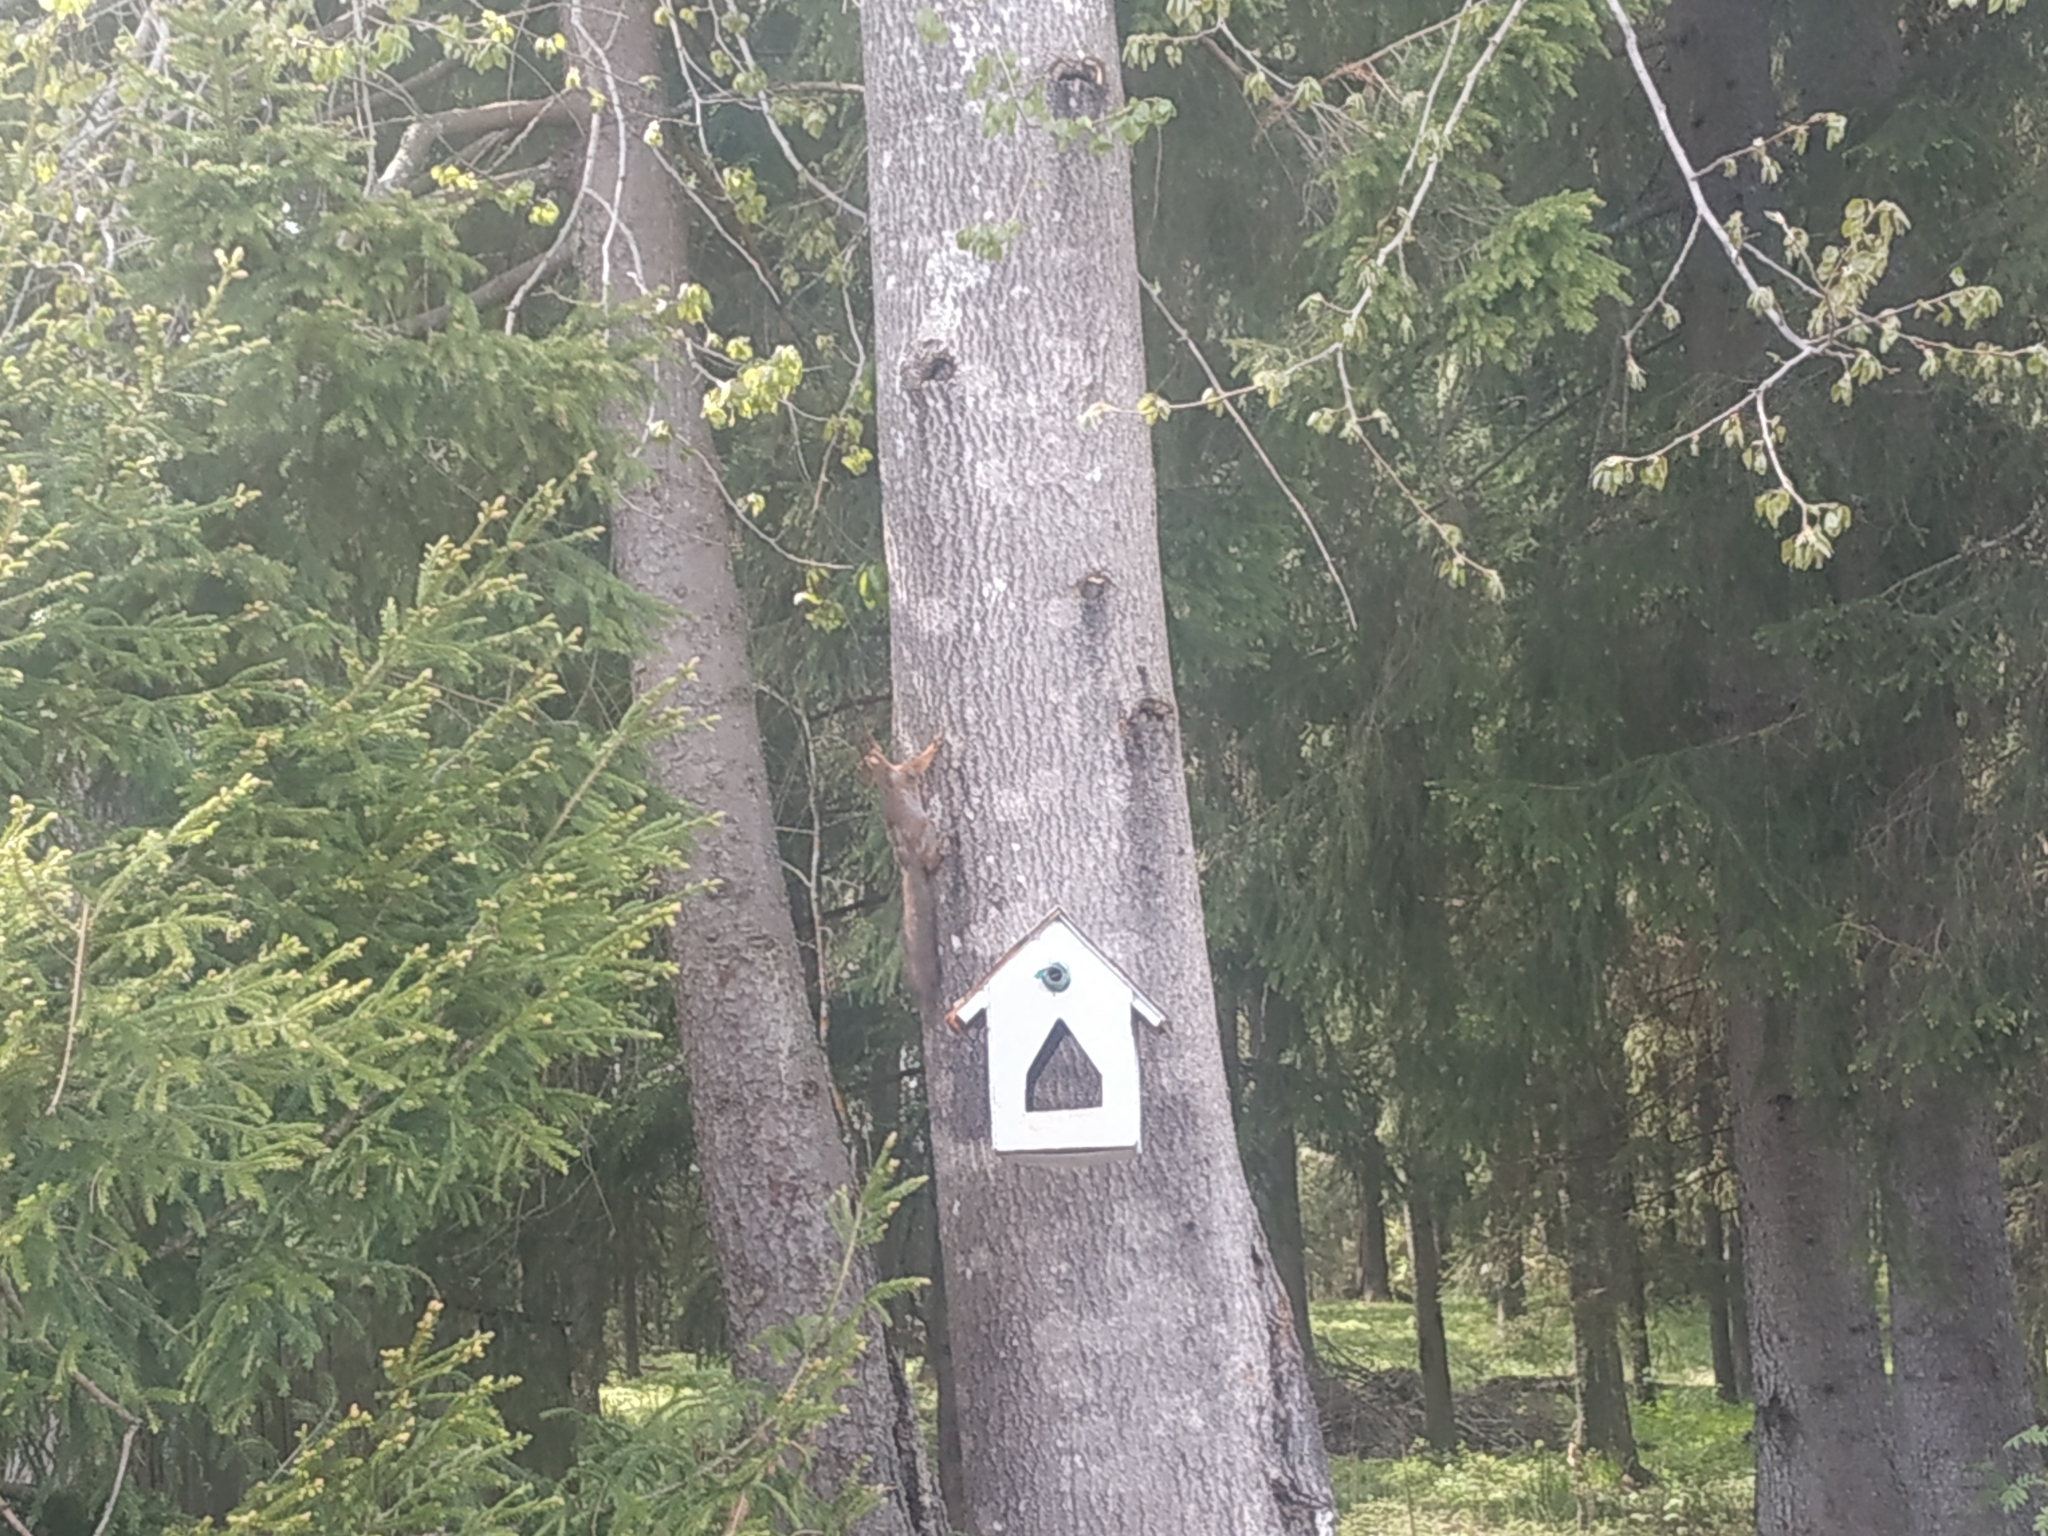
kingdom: Animalia
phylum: Chordata
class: Mammalia
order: Rodentia
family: Sciuridae
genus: Sciurus
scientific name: Sciurus vulgaris
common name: Eurasian red squirrel
